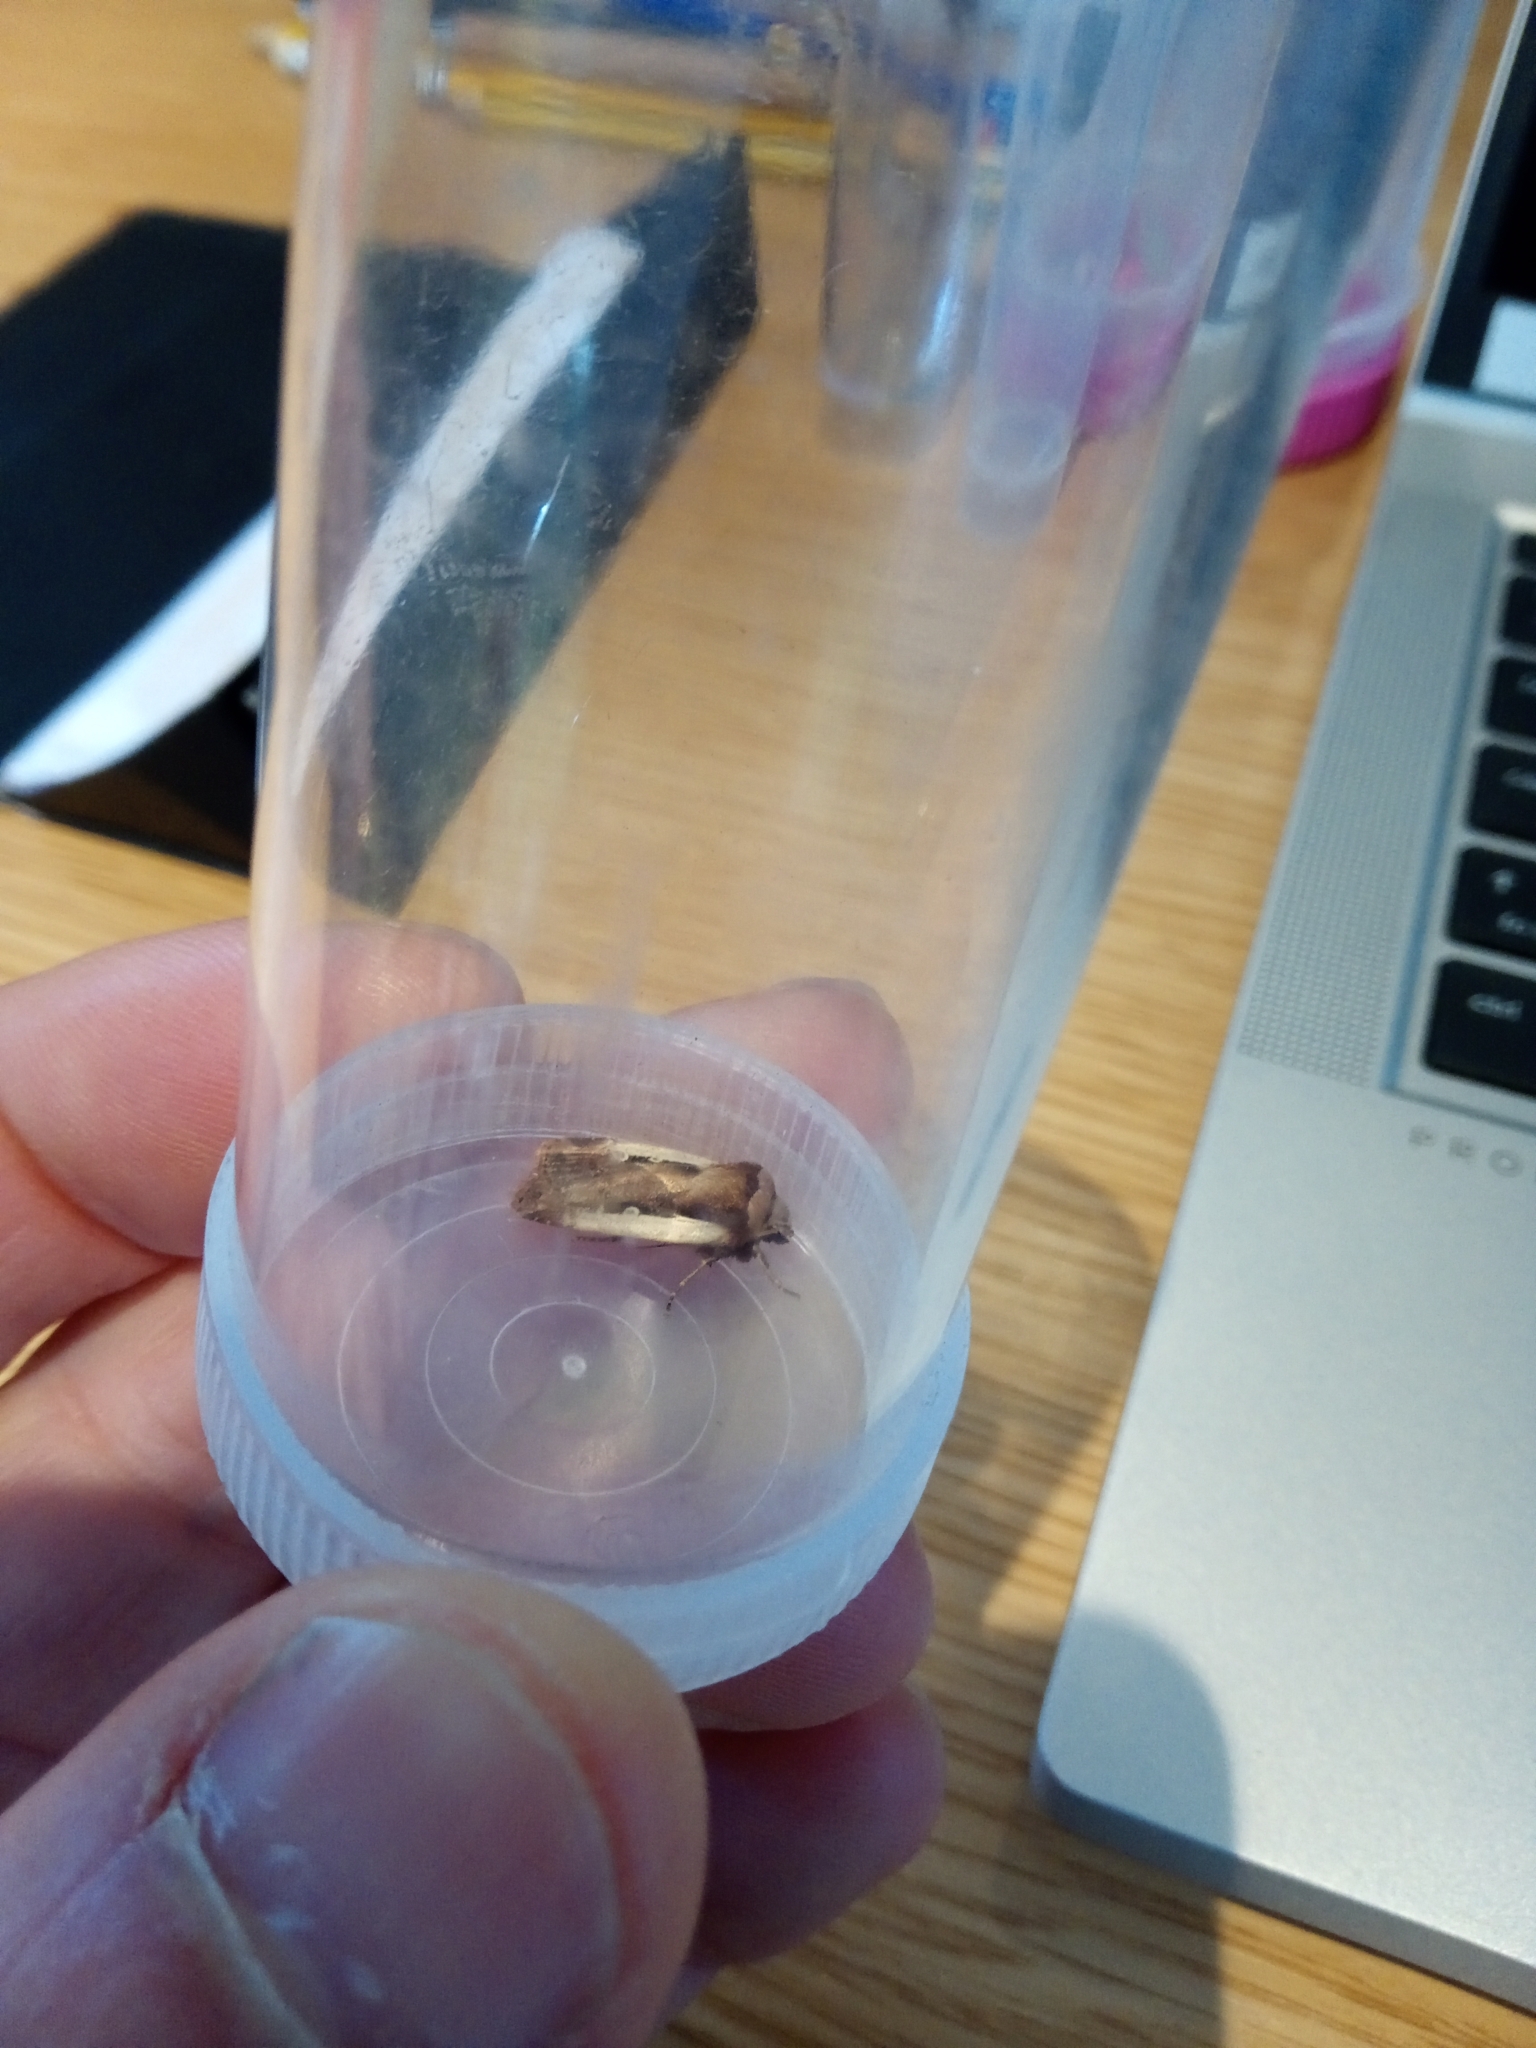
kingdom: Animalia
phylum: Arthropoda
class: Insecta
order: Lepidoptera
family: Noctuidae
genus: Ochropleura
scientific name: Ochropleura plecta
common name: Flame shoulder
